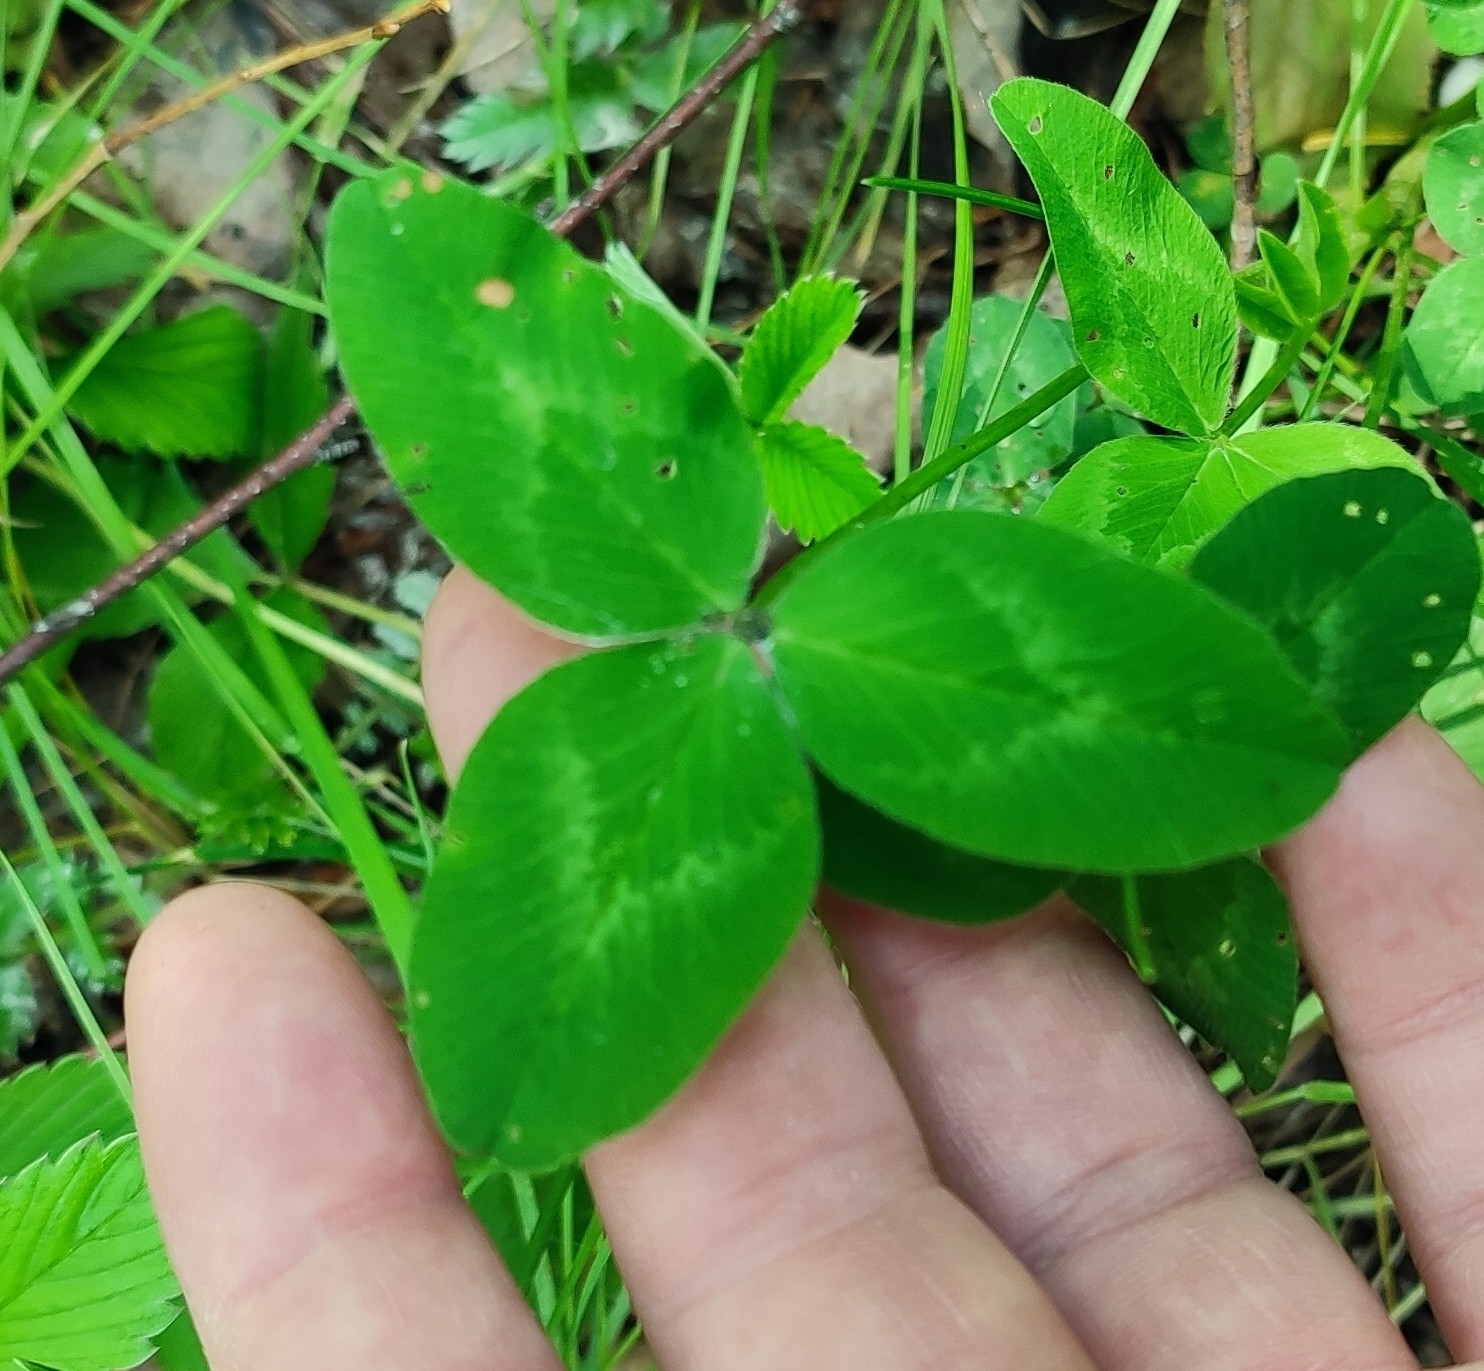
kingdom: Plantae
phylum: Tracheophyta
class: Magnoliopsida
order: Fabales
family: Fabaceae
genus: Trifolium
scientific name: Trifolium pratense
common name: Red clover
